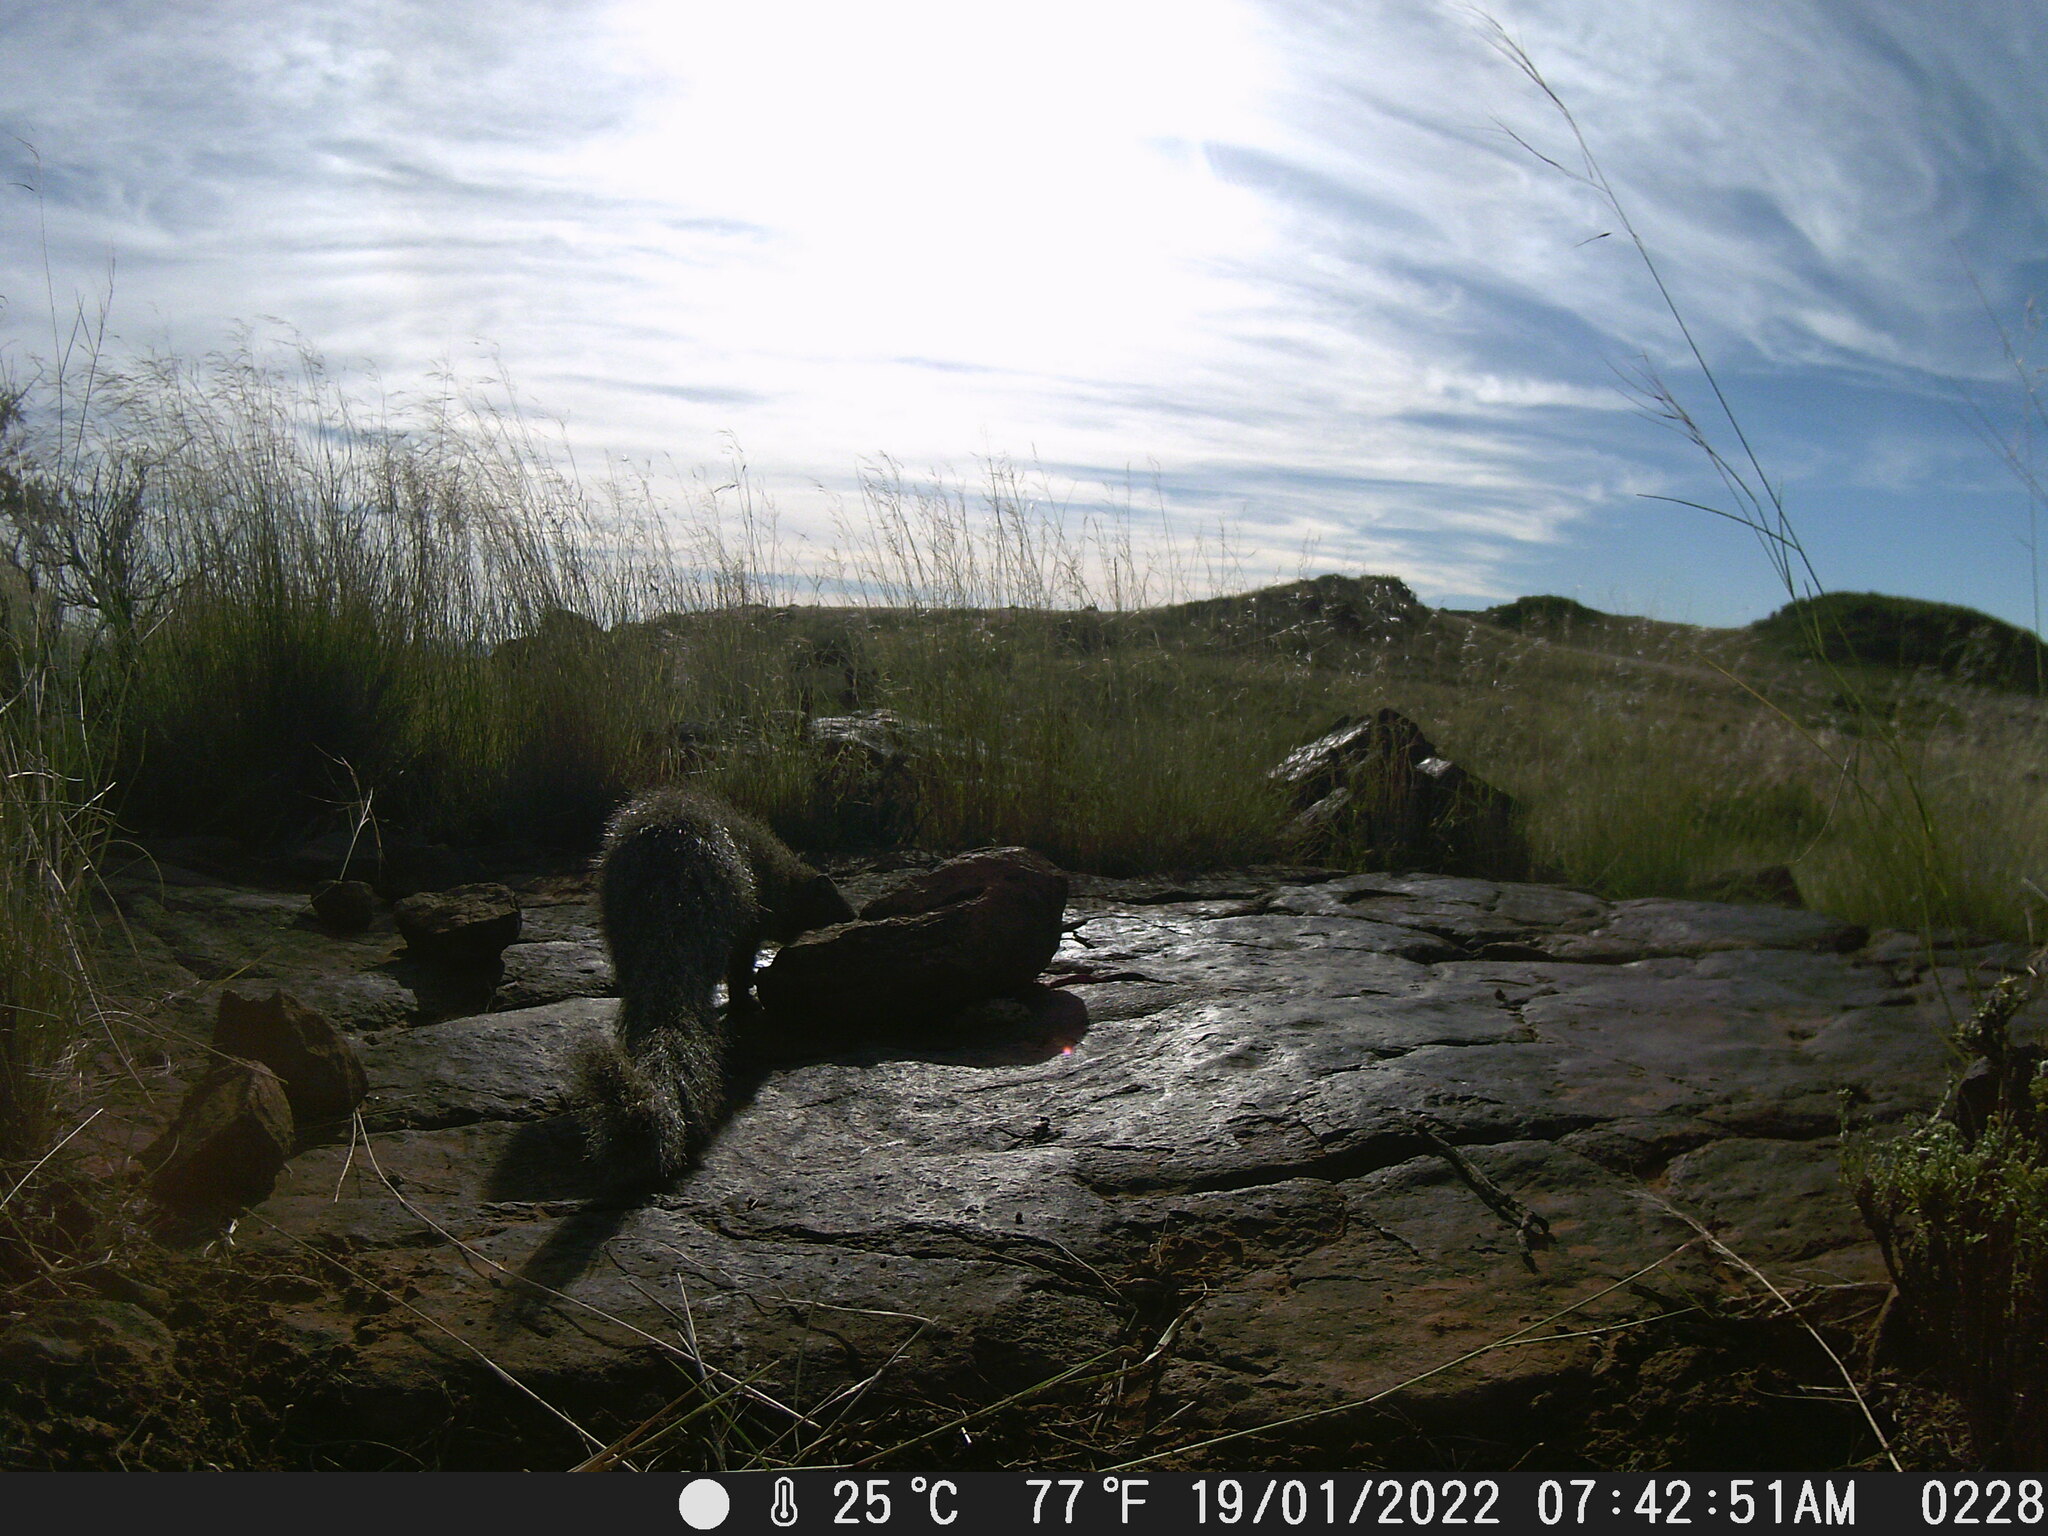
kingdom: Animalia
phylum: Chordata
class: Mammalia
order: Carnivora
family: Herpestidae
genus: Galerella
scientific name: Galerella pulverulenta
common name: Cape gray mongoose
